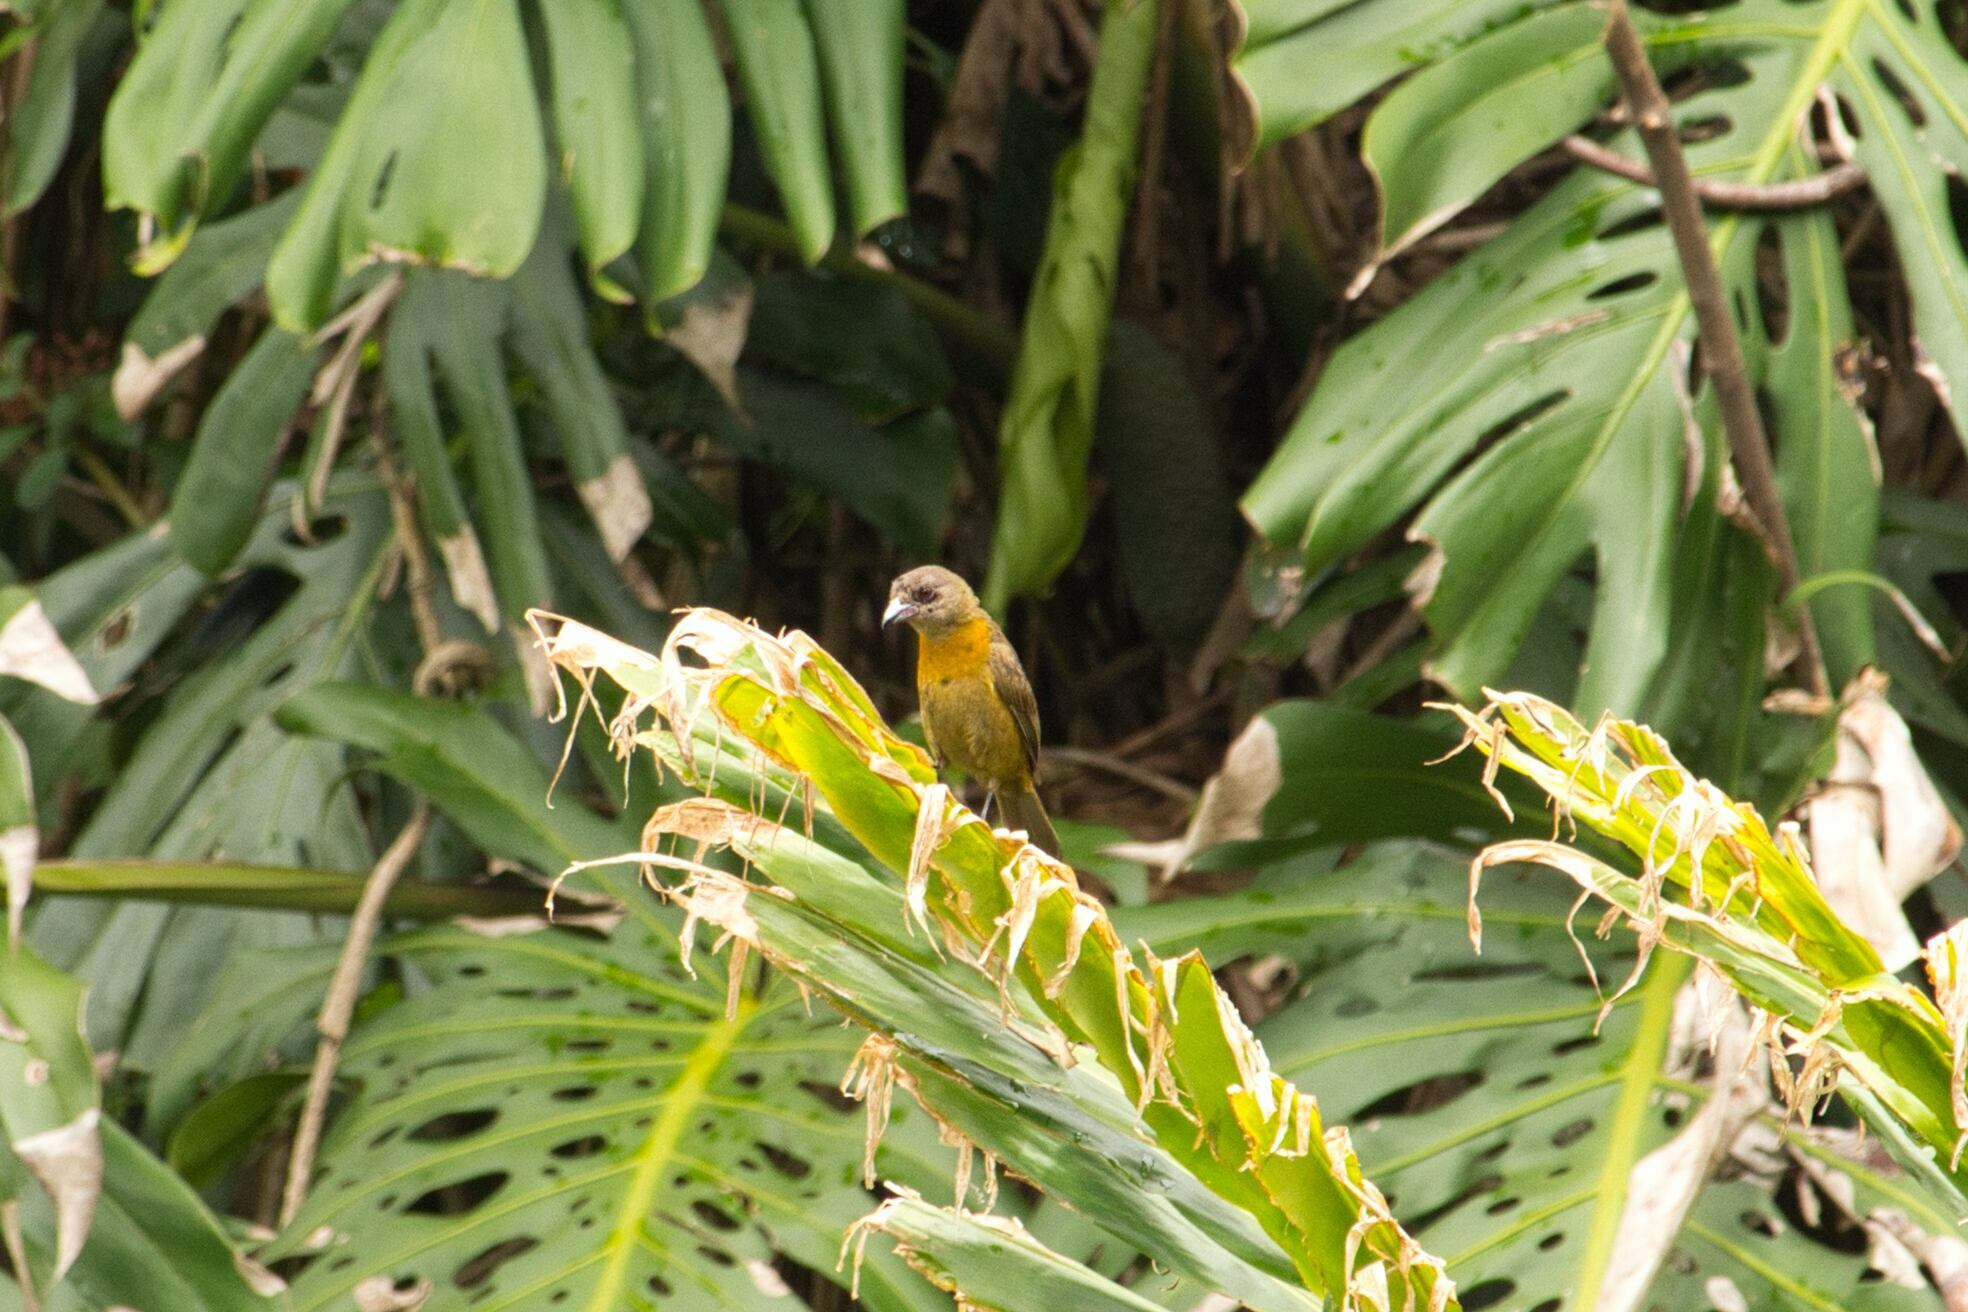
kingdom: Animalia
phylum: Chordata
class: Aves
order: Passeriformes
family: Thraupidae
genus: Ramphocelus
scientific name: Ramphocelus passerinii
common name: Passerini's tanager
